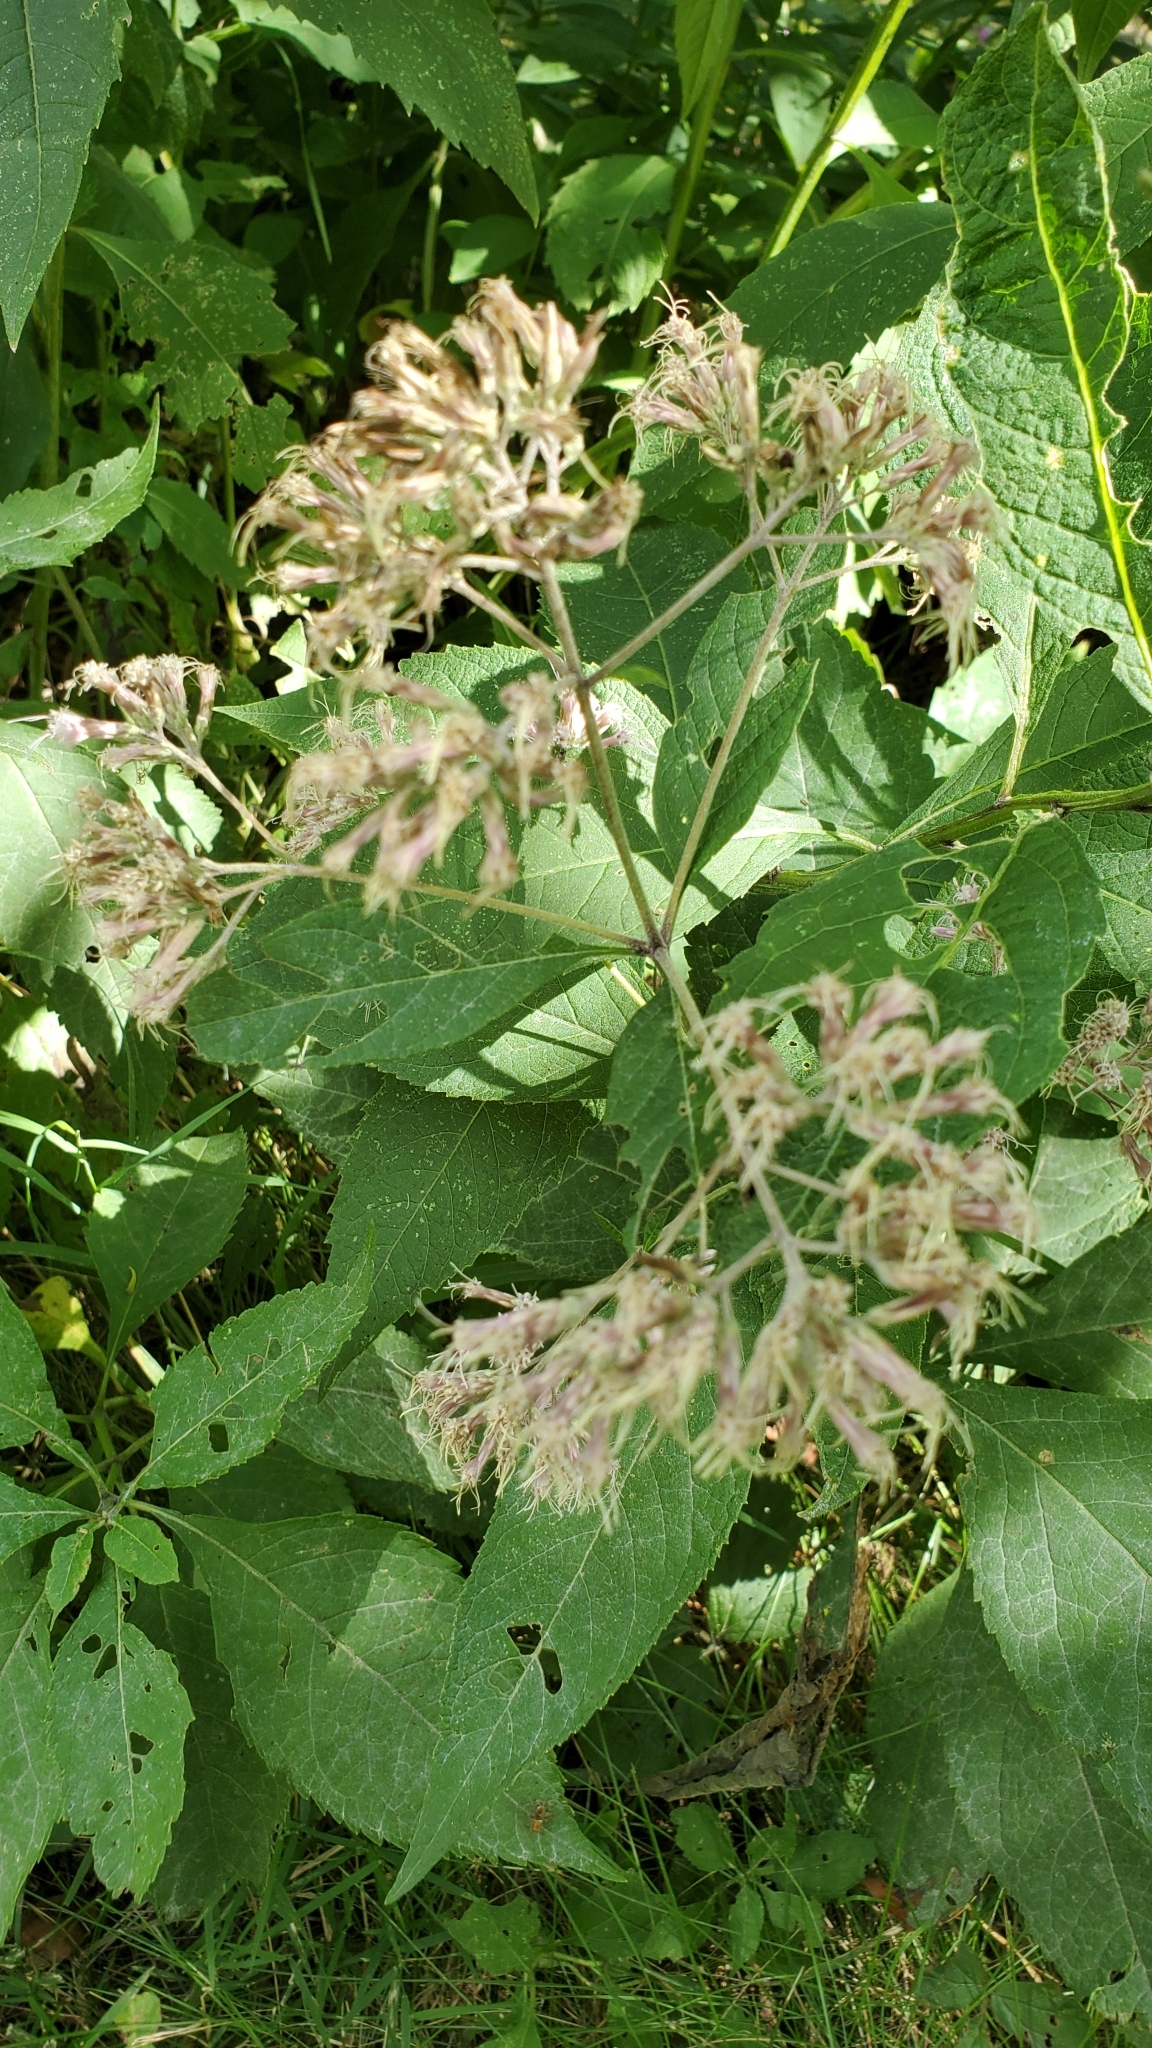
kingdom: Plantae
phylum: Tracheophyta
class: Magnoliopsida
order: Asterales
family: Asteraceae
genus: Eutrochium
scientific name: Eutrochium purpureum
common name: Gravelroot
